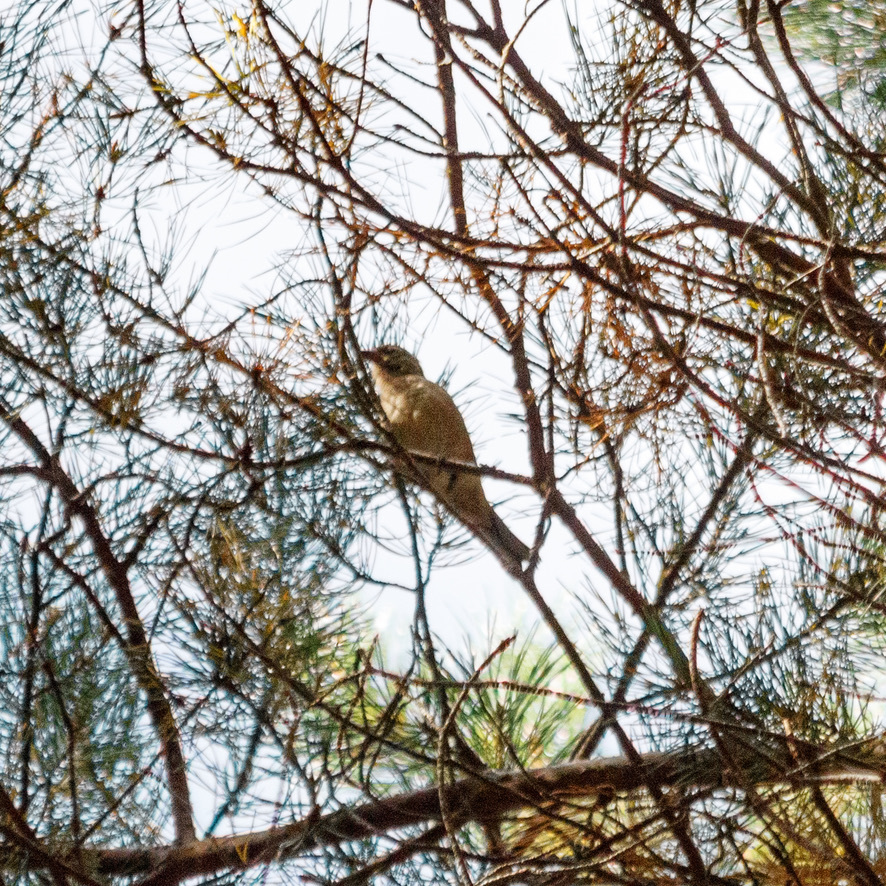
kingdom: Animalia
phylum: Chordata
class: Aves
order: Piciformes
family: Picidae
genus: Jynx
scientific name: Jynx torquilla
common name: Eurasian wryneck
